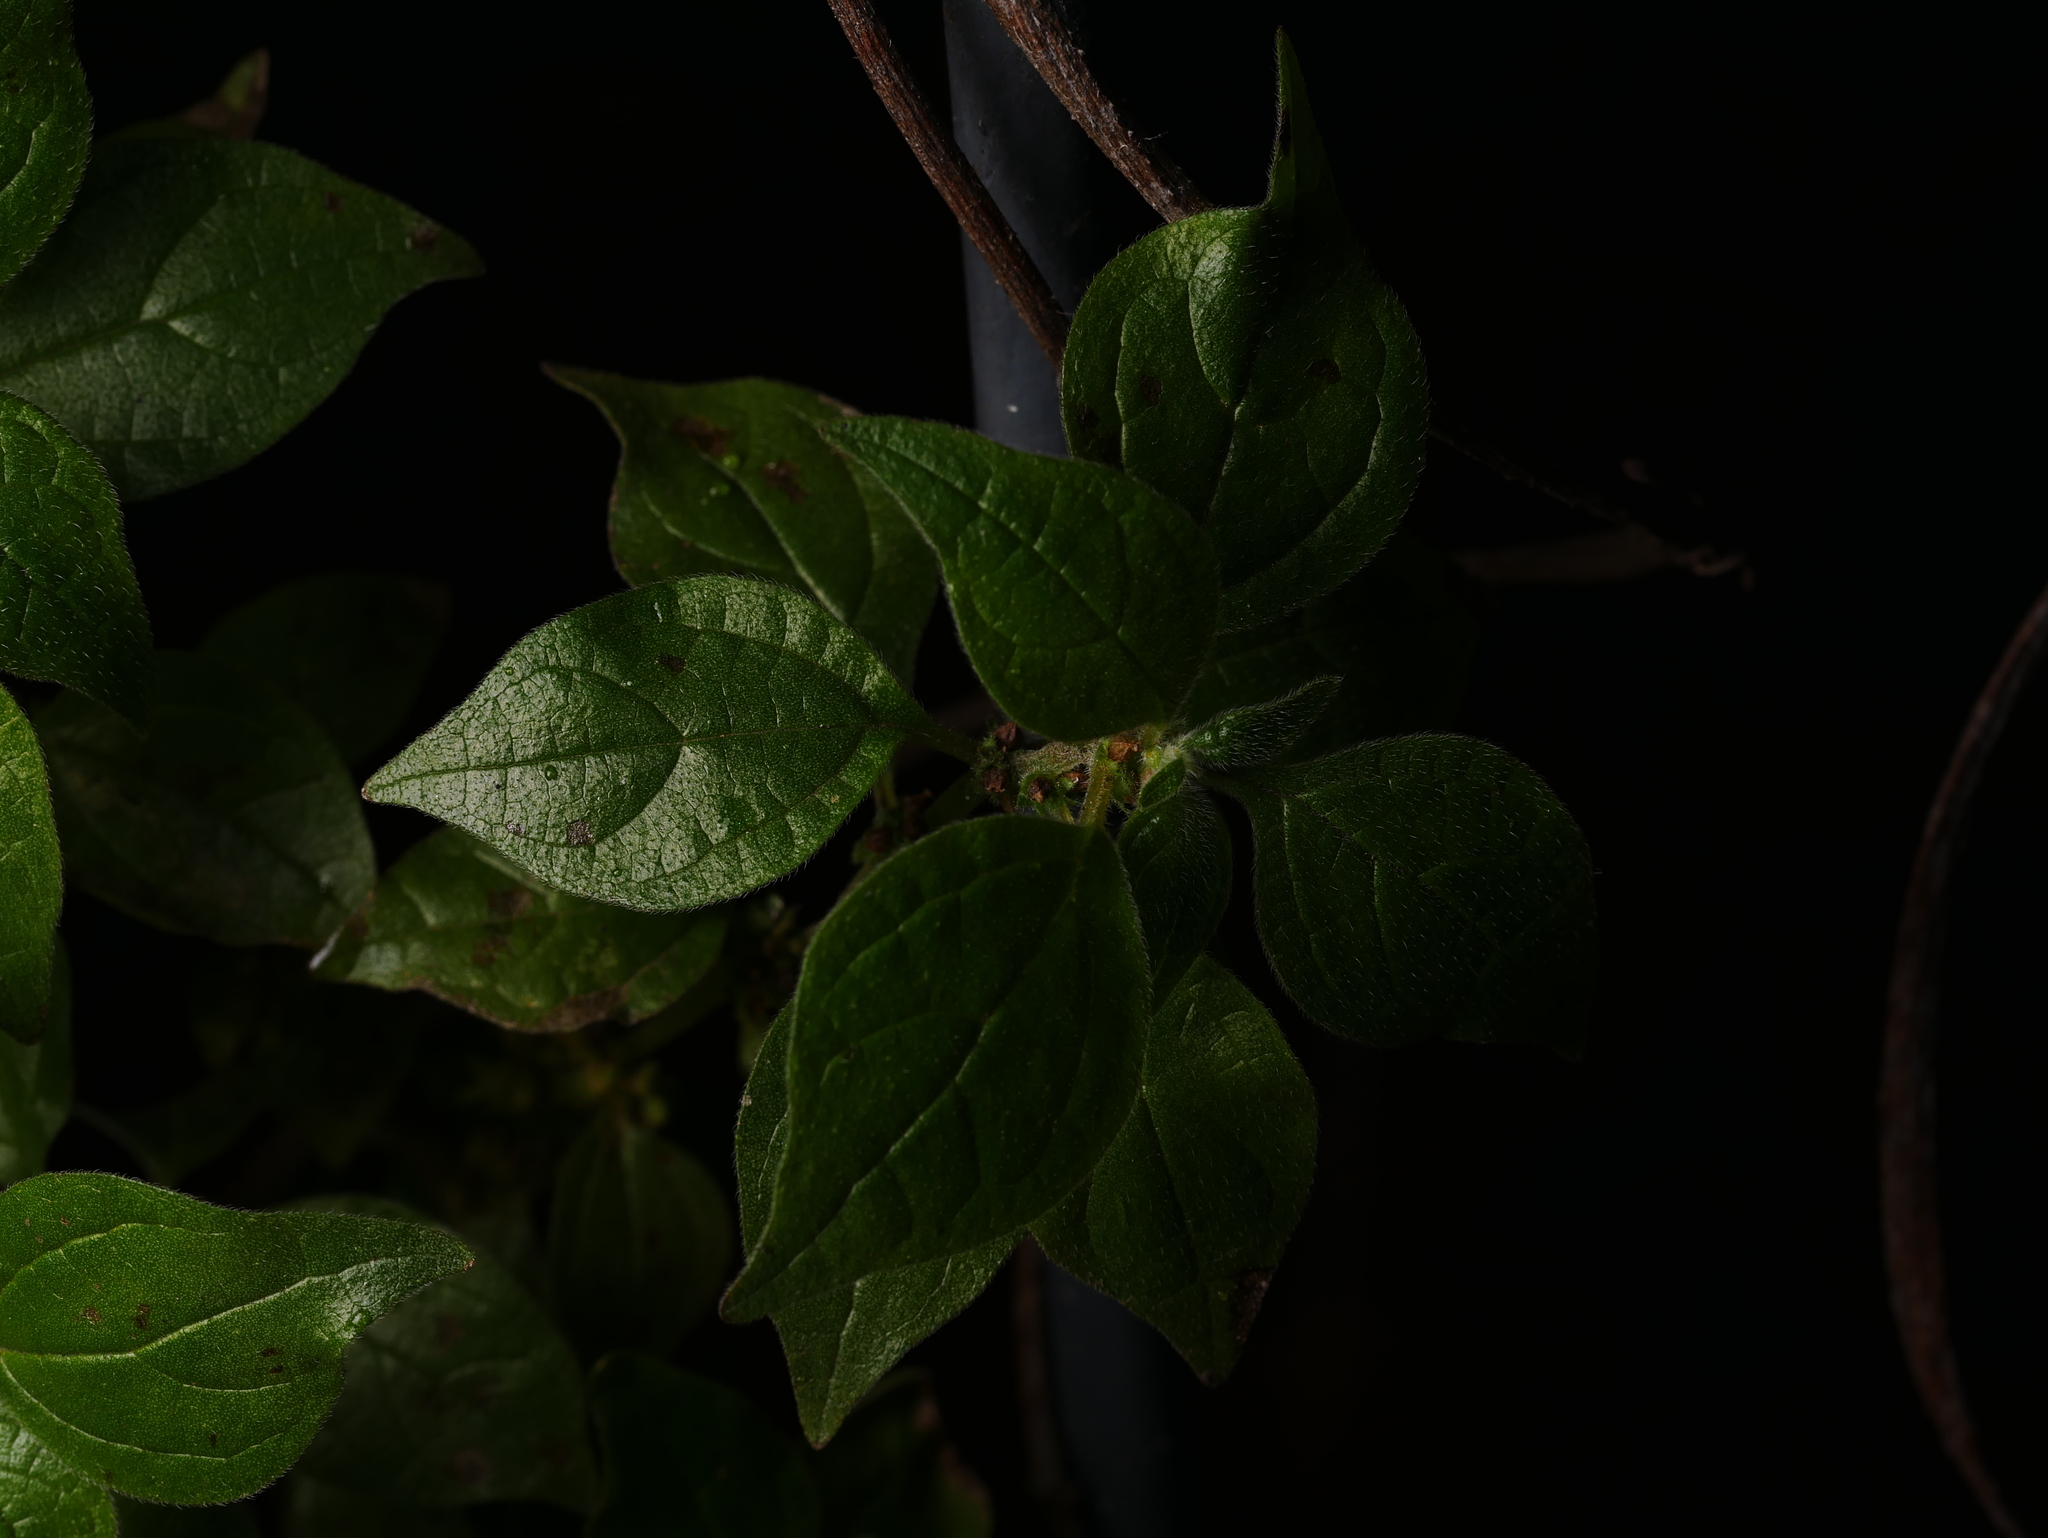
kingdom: Plantae
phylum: Tracheophyta
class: Magnoliopsida
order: Rosales
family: Urticaceae
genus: Parietaria
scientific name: Parietaria officinalis
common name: Eastern pellitory-of-the-wall
